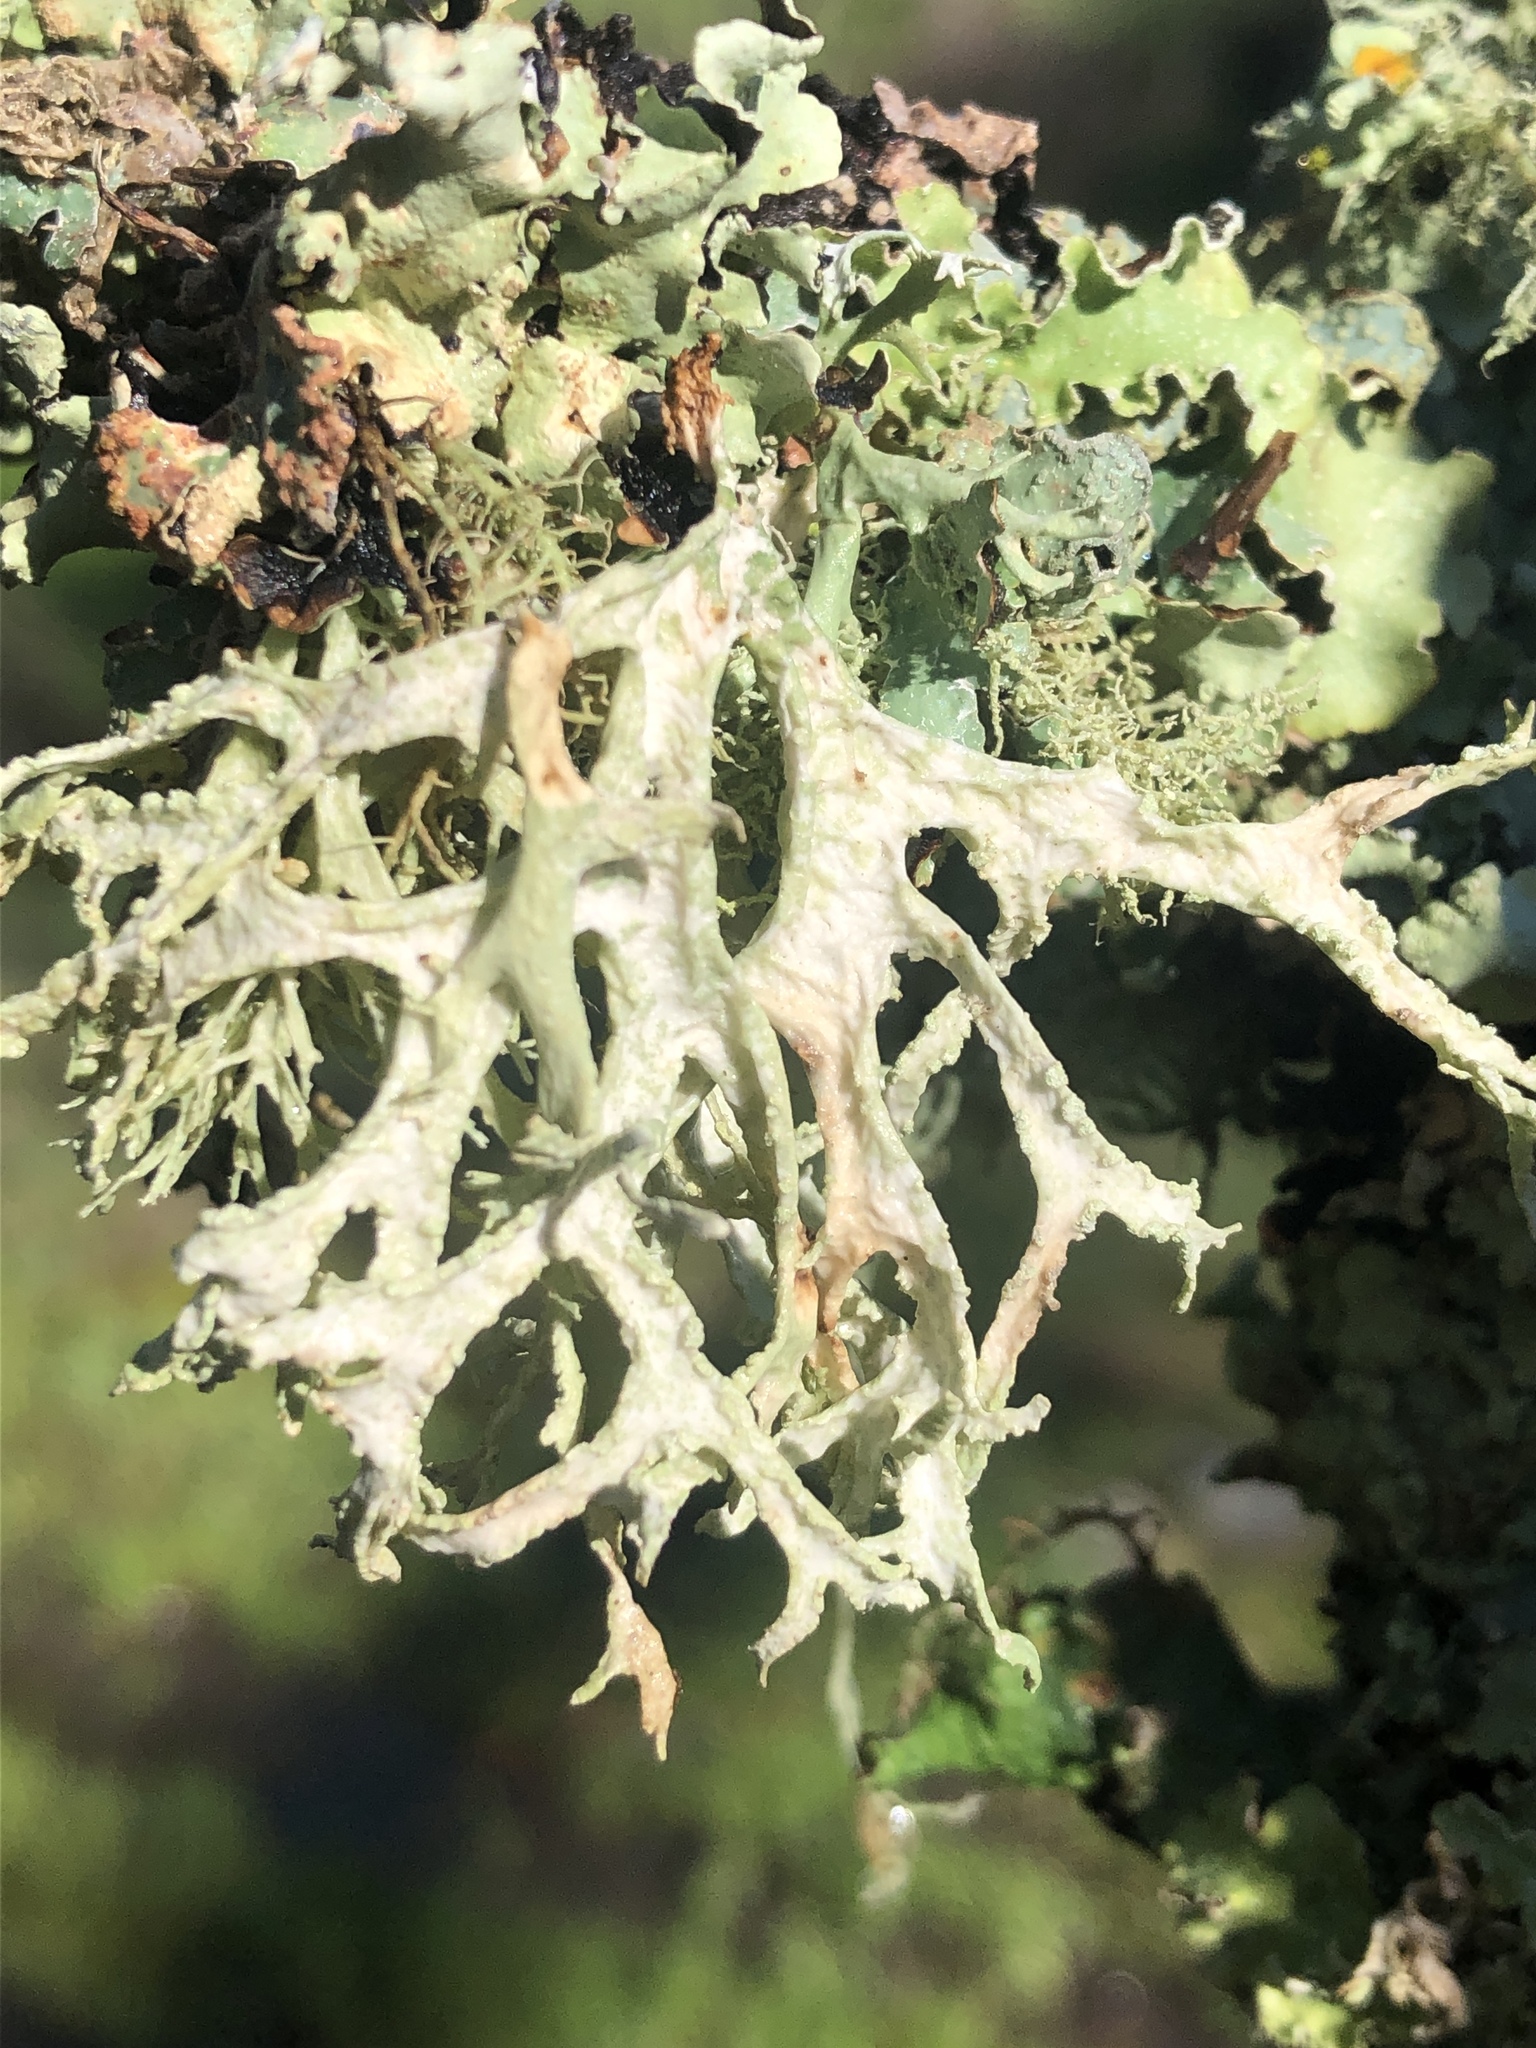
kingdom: Fungi
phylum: Ascomycota
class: Lecanoromycetes
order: Lecanorales
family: Parmeliaceae
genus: Evernia
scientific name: Evernia prunastri
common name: Oak moss
